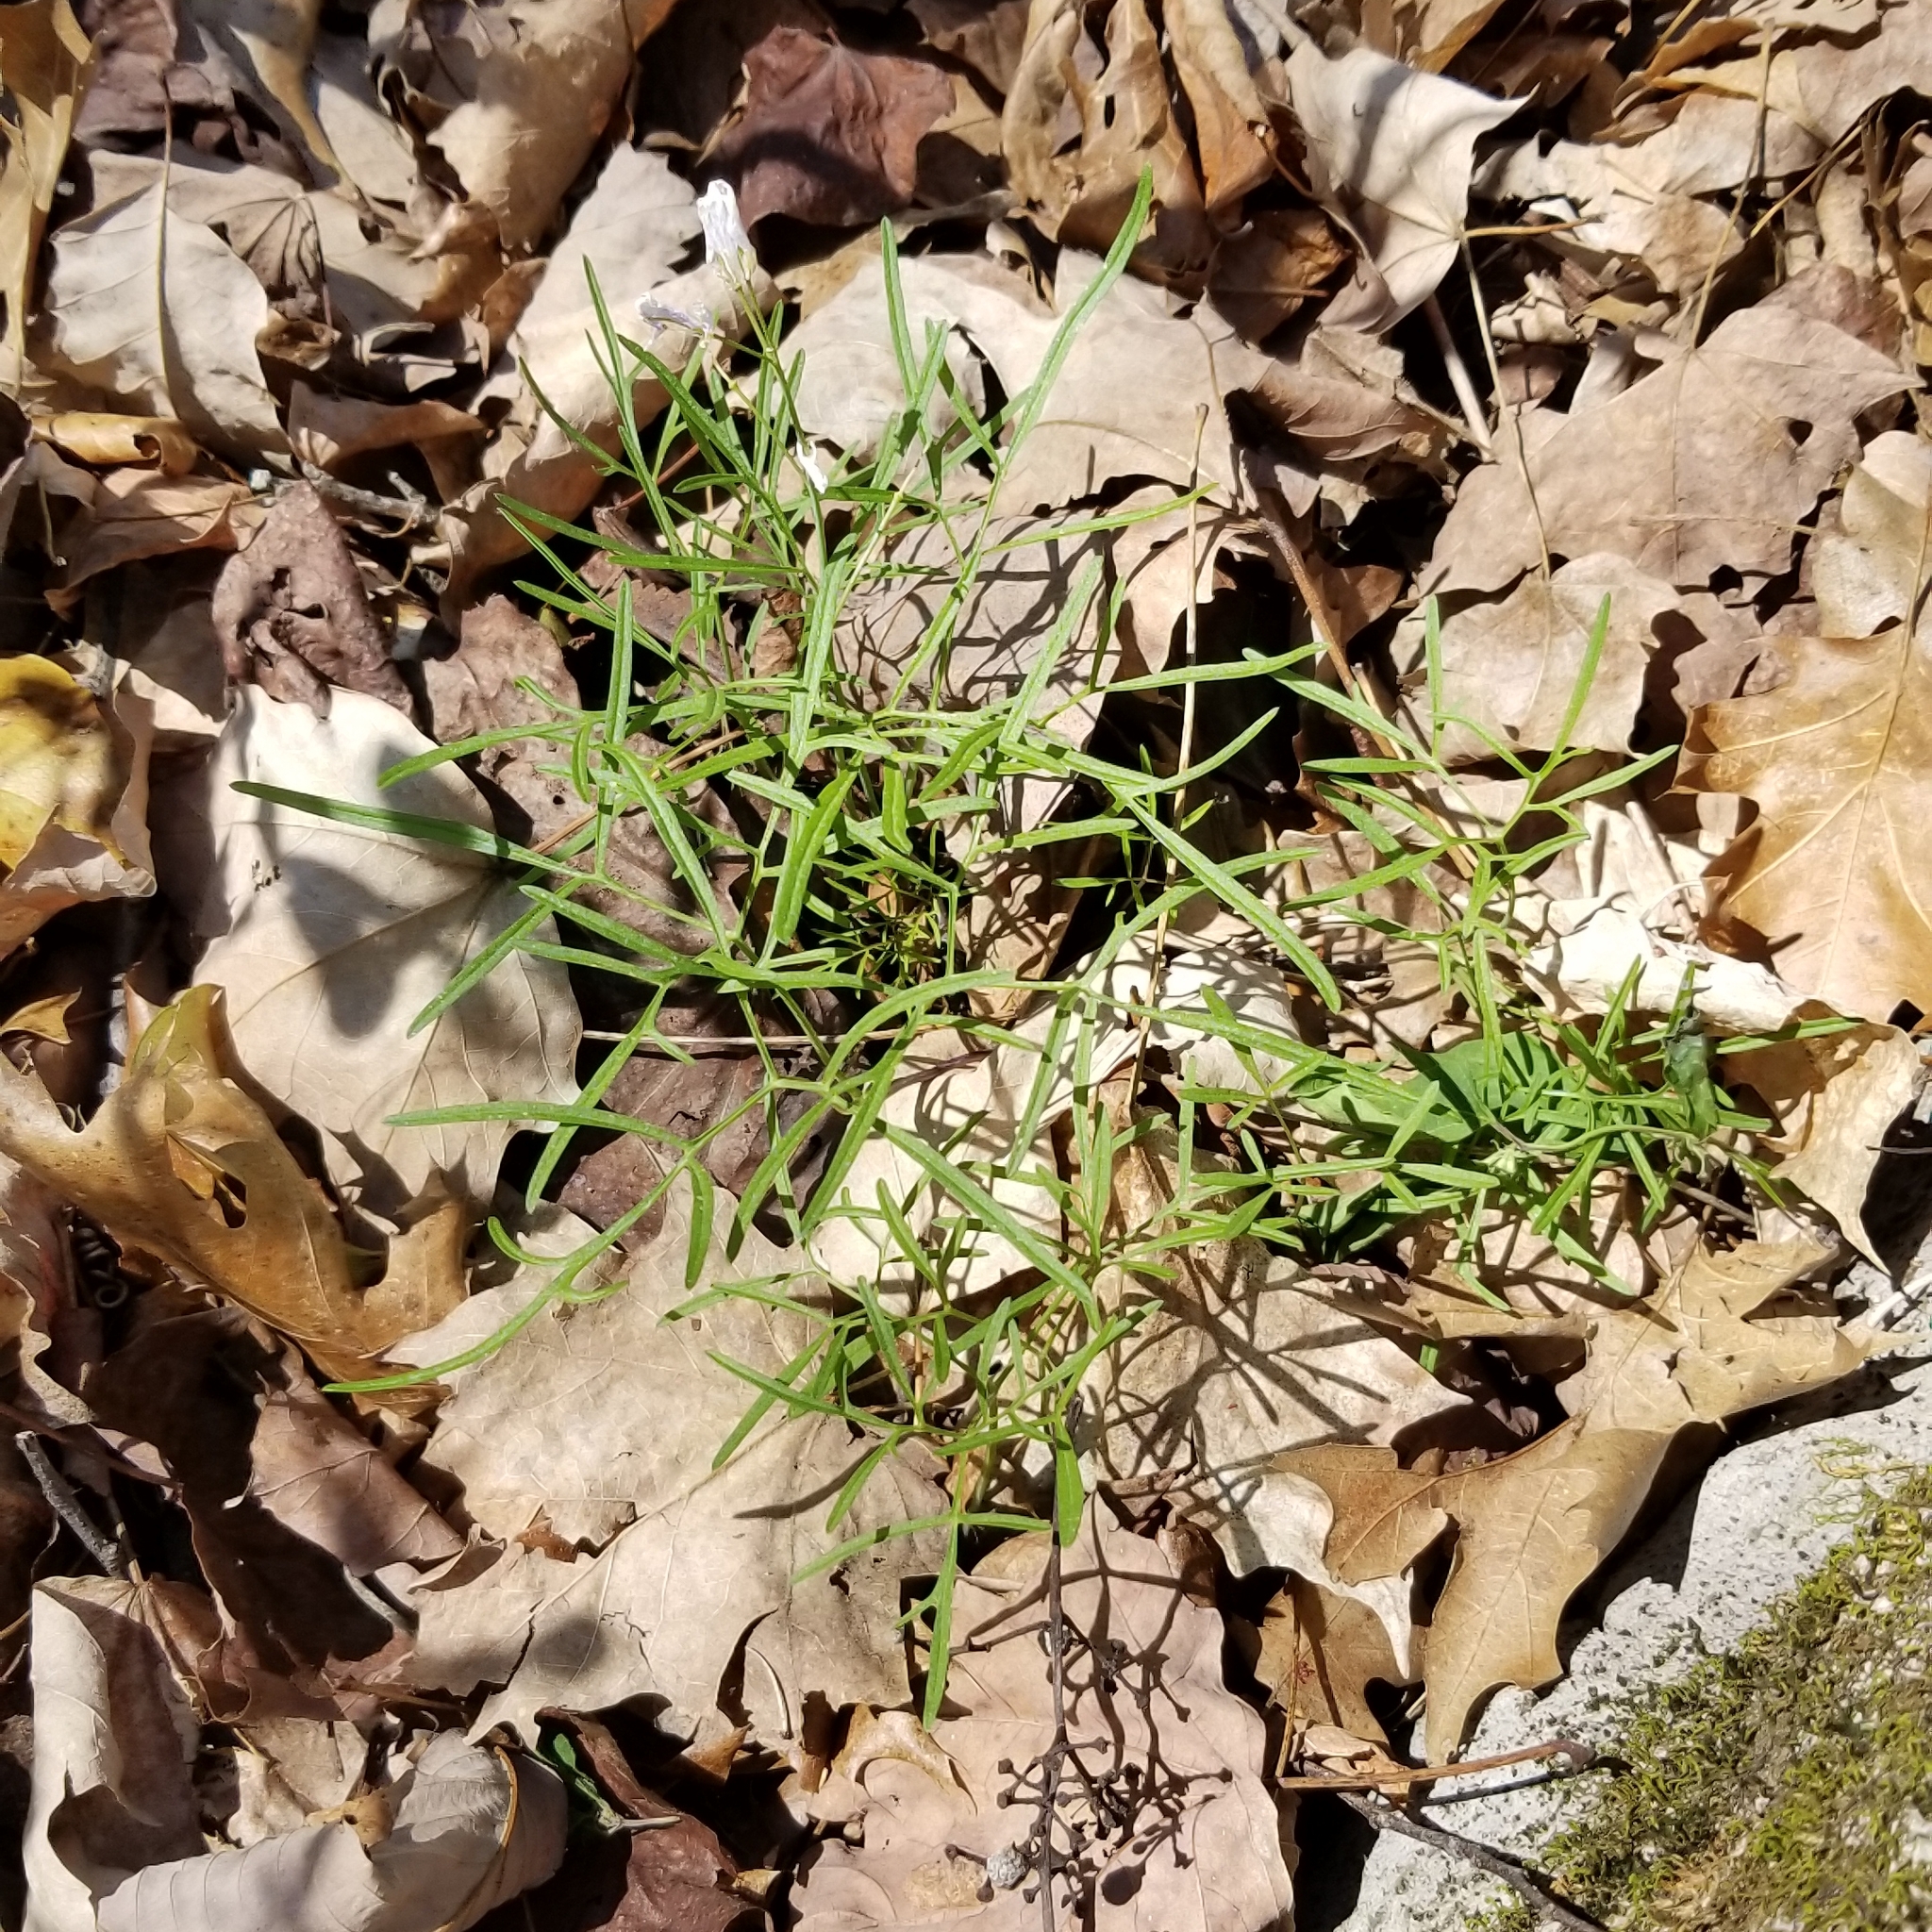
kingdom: Plantae
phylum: Tracheophyta
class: Magnoliopsida
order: Brassicales
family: Brassicaceae
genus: Cardamine
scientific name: Cardamine dissecta
